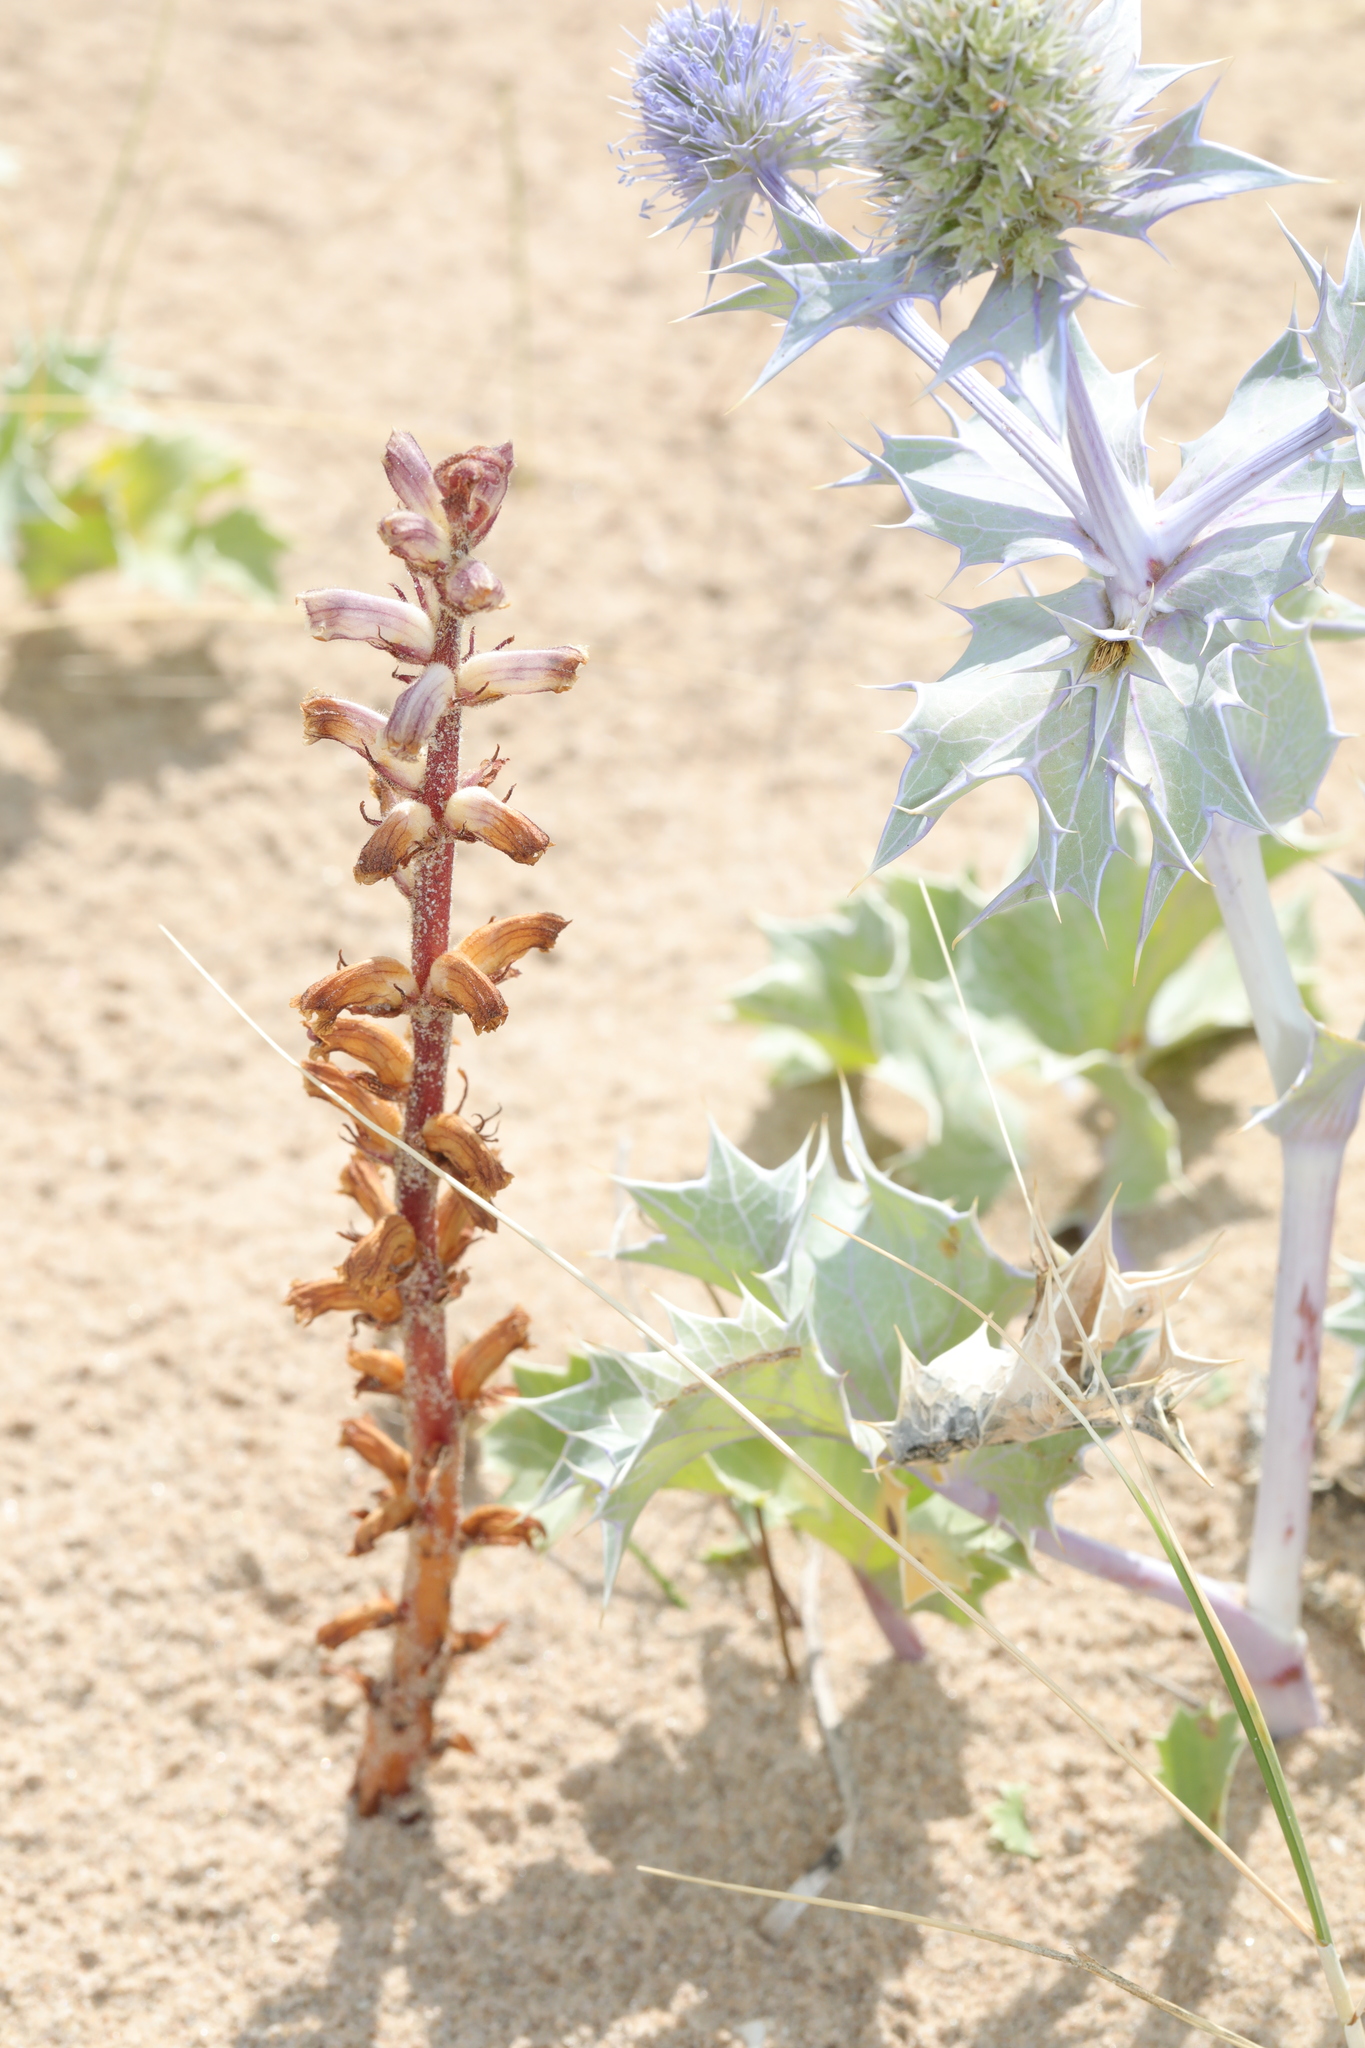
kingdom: Plantae
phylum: Tracheophyta
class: Magnoliopsida
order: Lamiales
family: Orobanchaceae
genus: Orobanche
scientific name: Orobanche minor
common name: Common broomrape
